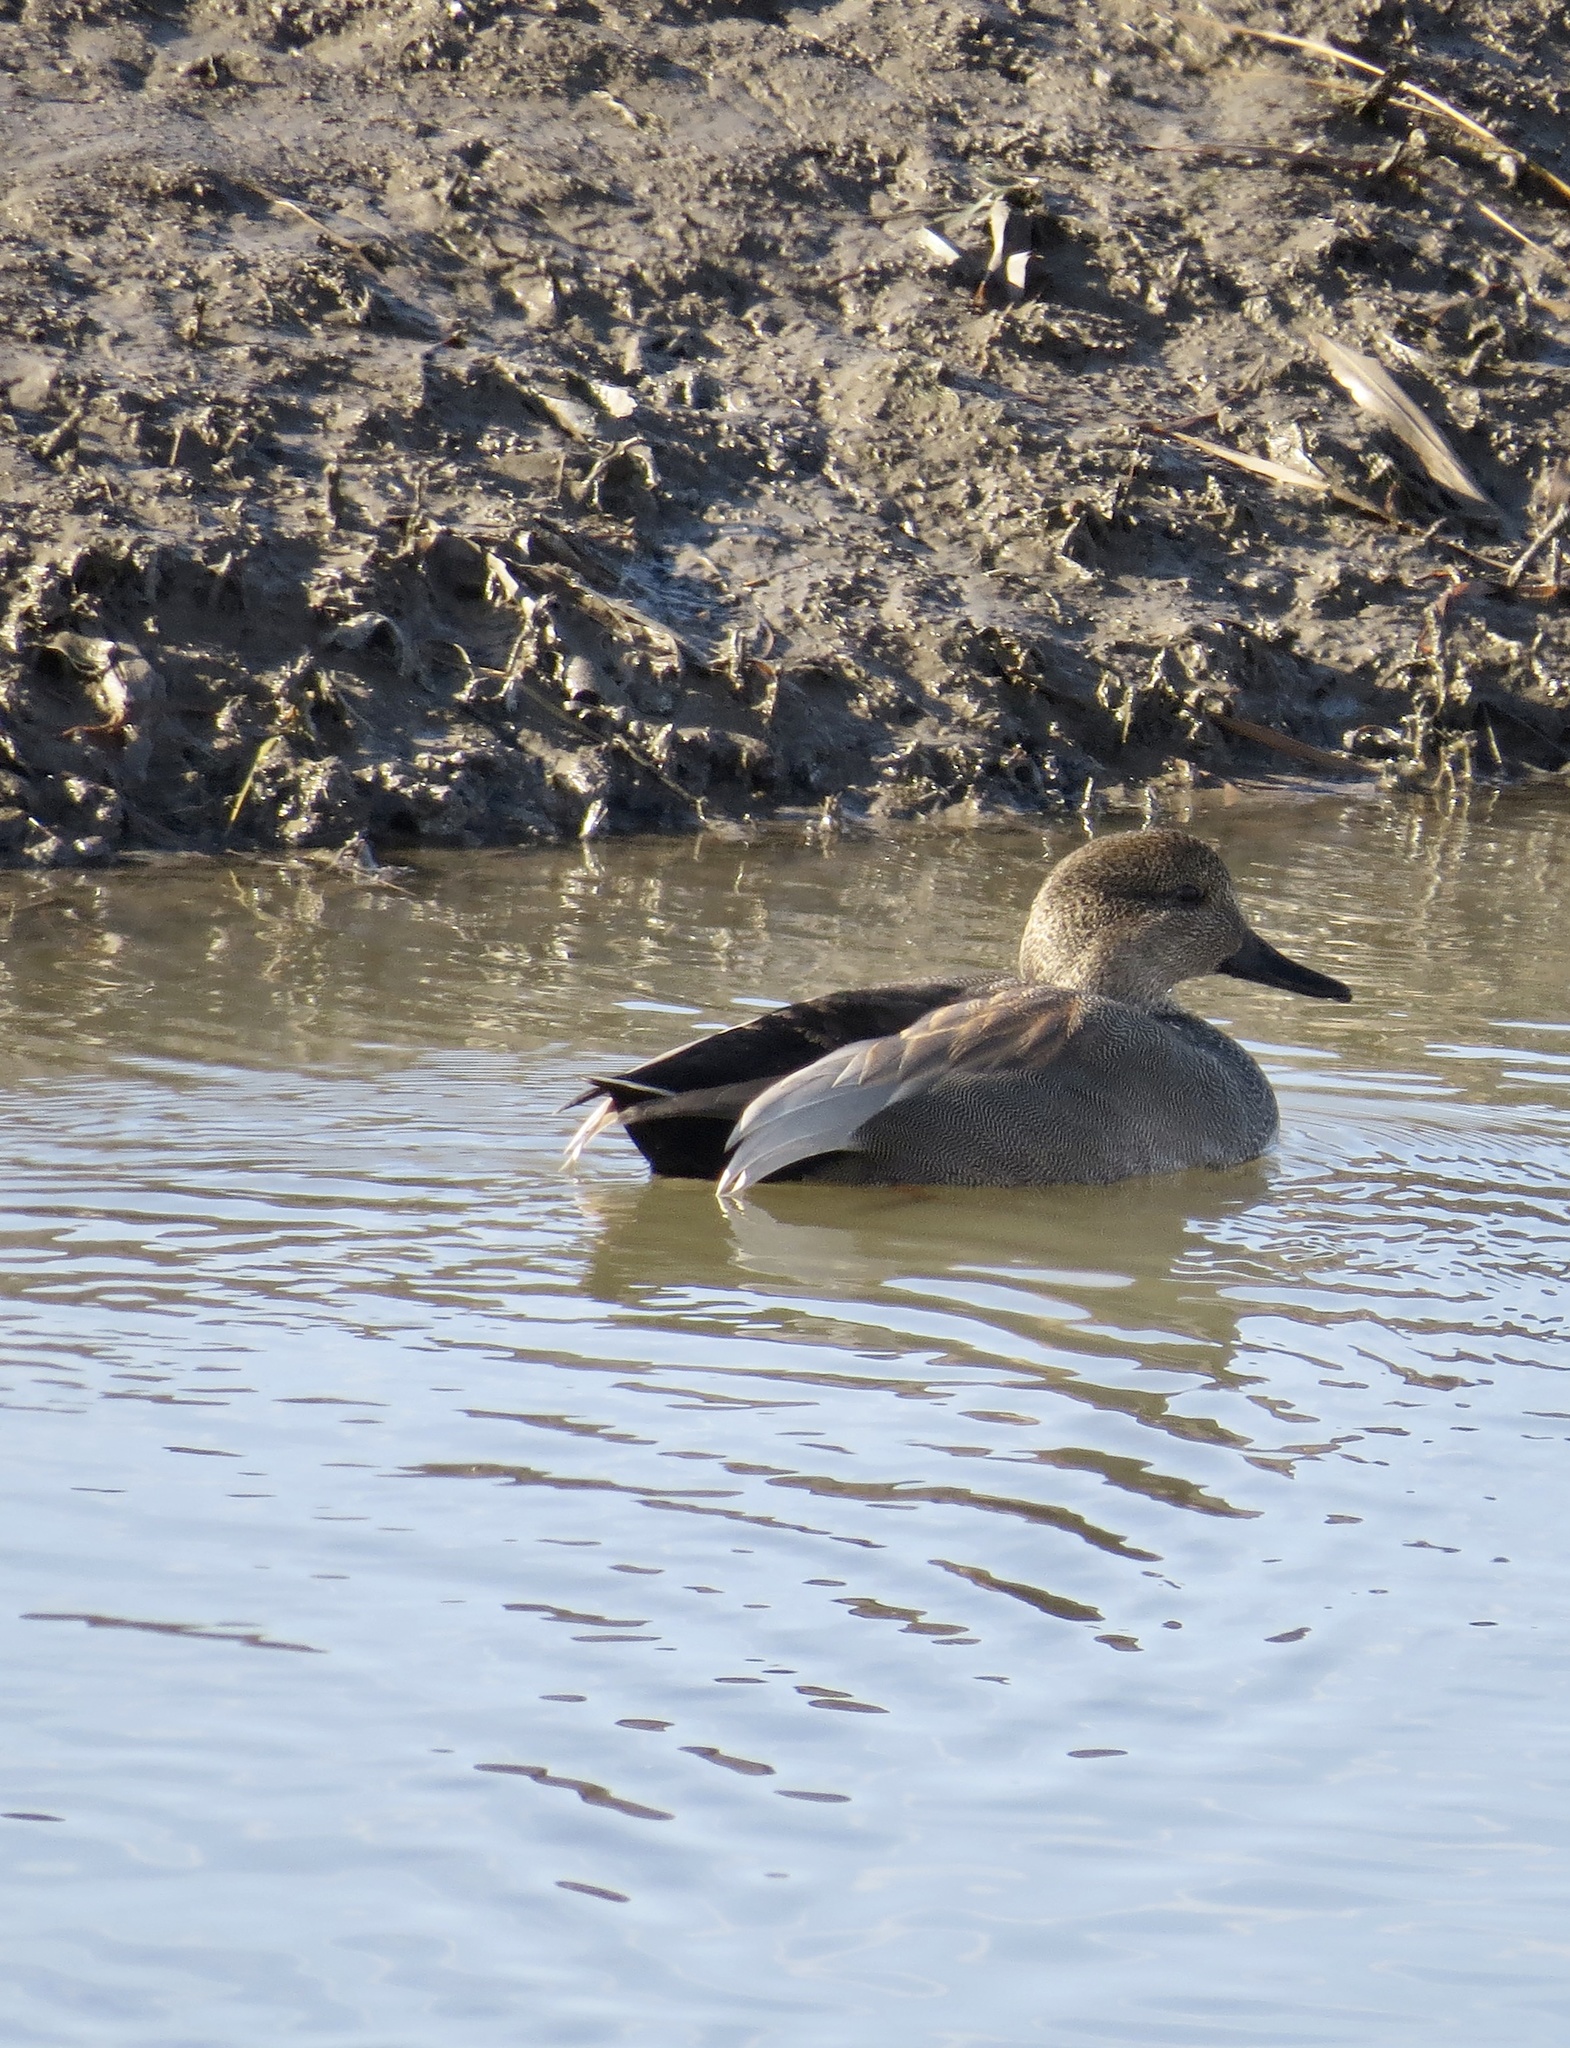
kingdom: Animalia
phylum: Chordata
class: Aves
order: Anseriformes
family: Anatidae
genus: Mareca
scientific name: Mareca strepera
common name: Gadwall
